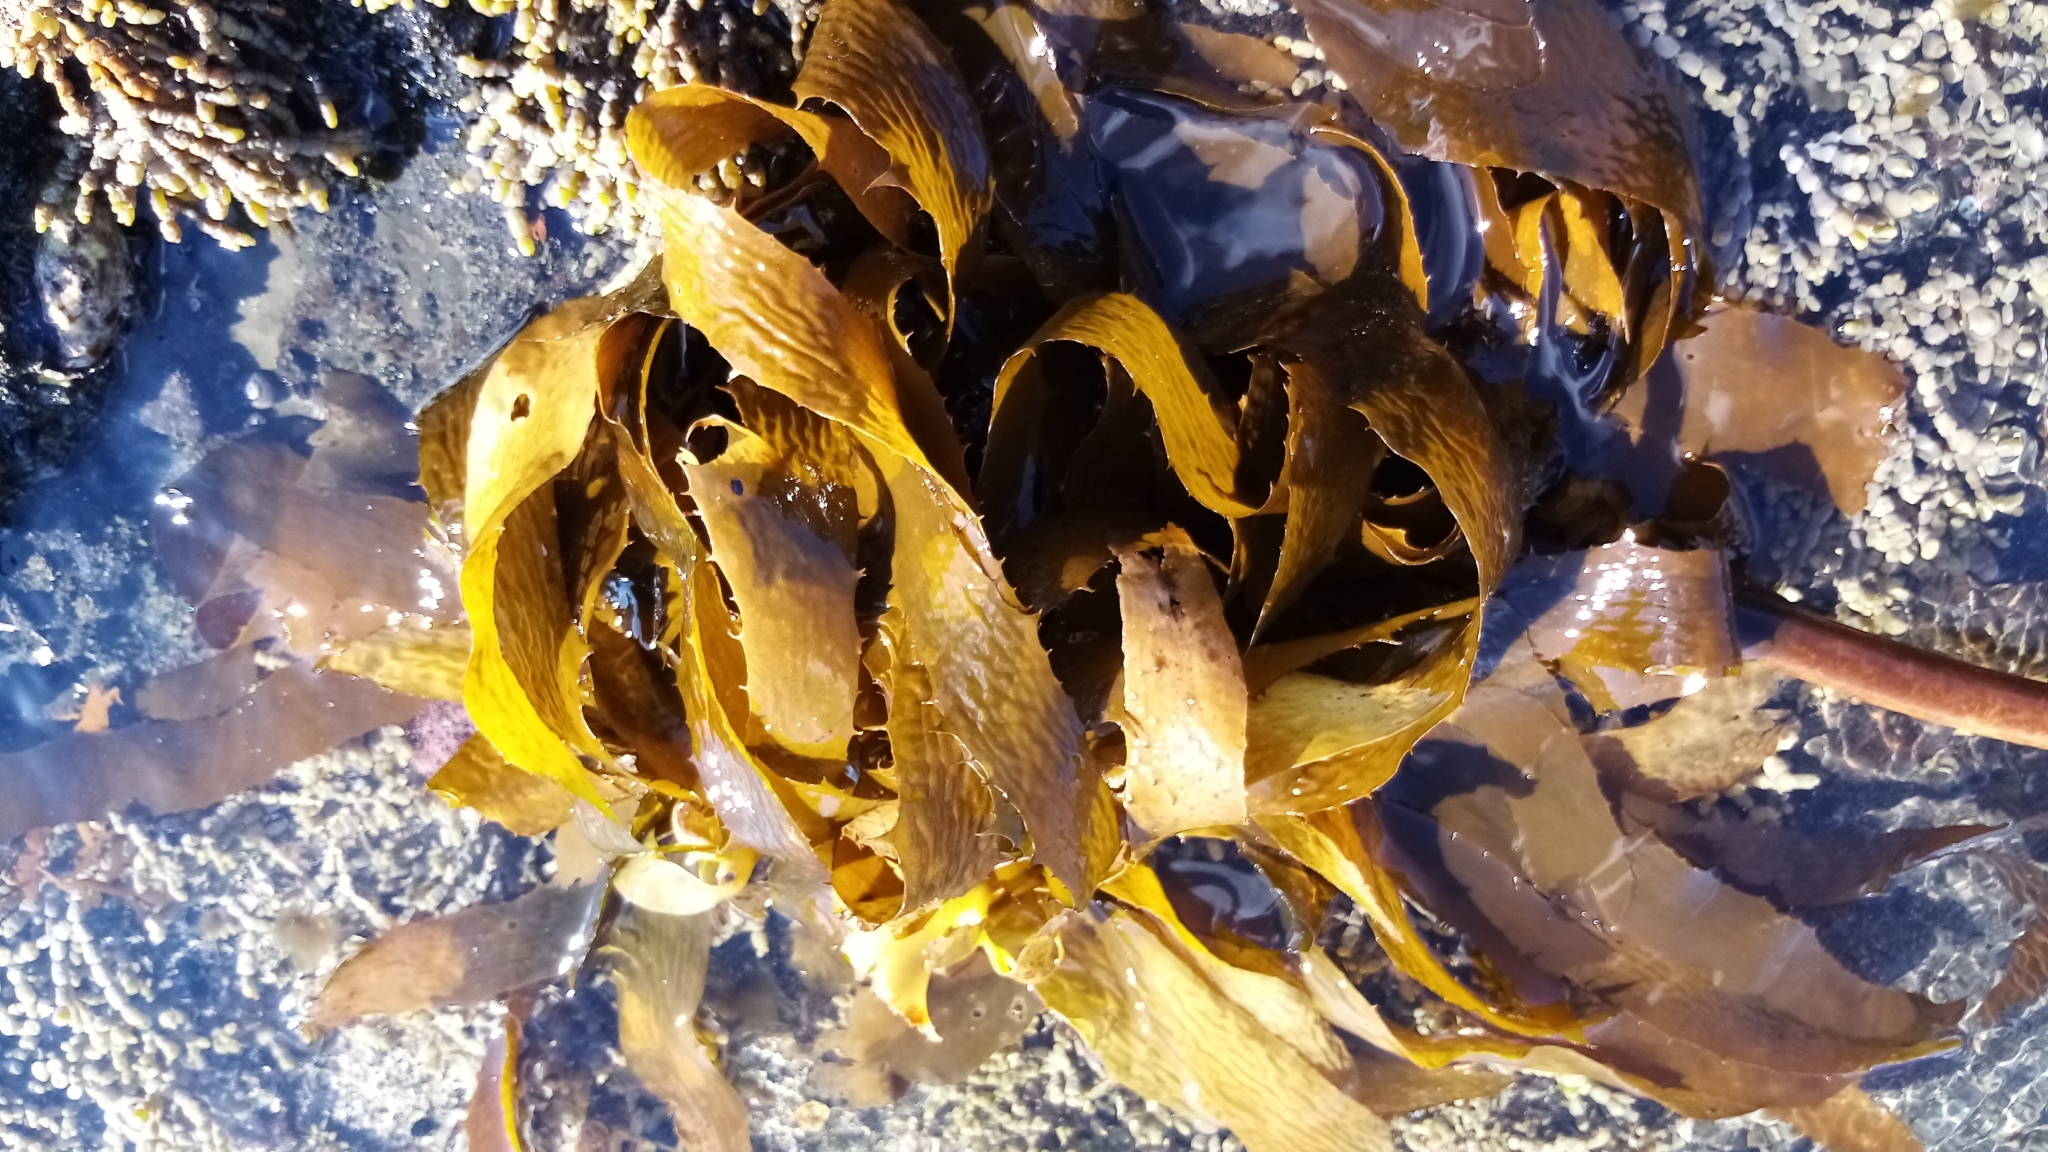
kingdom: Chromista
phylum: Ochrophyta
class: Phaeophyceae
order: Laminariales
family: Lessoniaceae
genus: Ecklonia
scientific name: Ecklonia radiata
